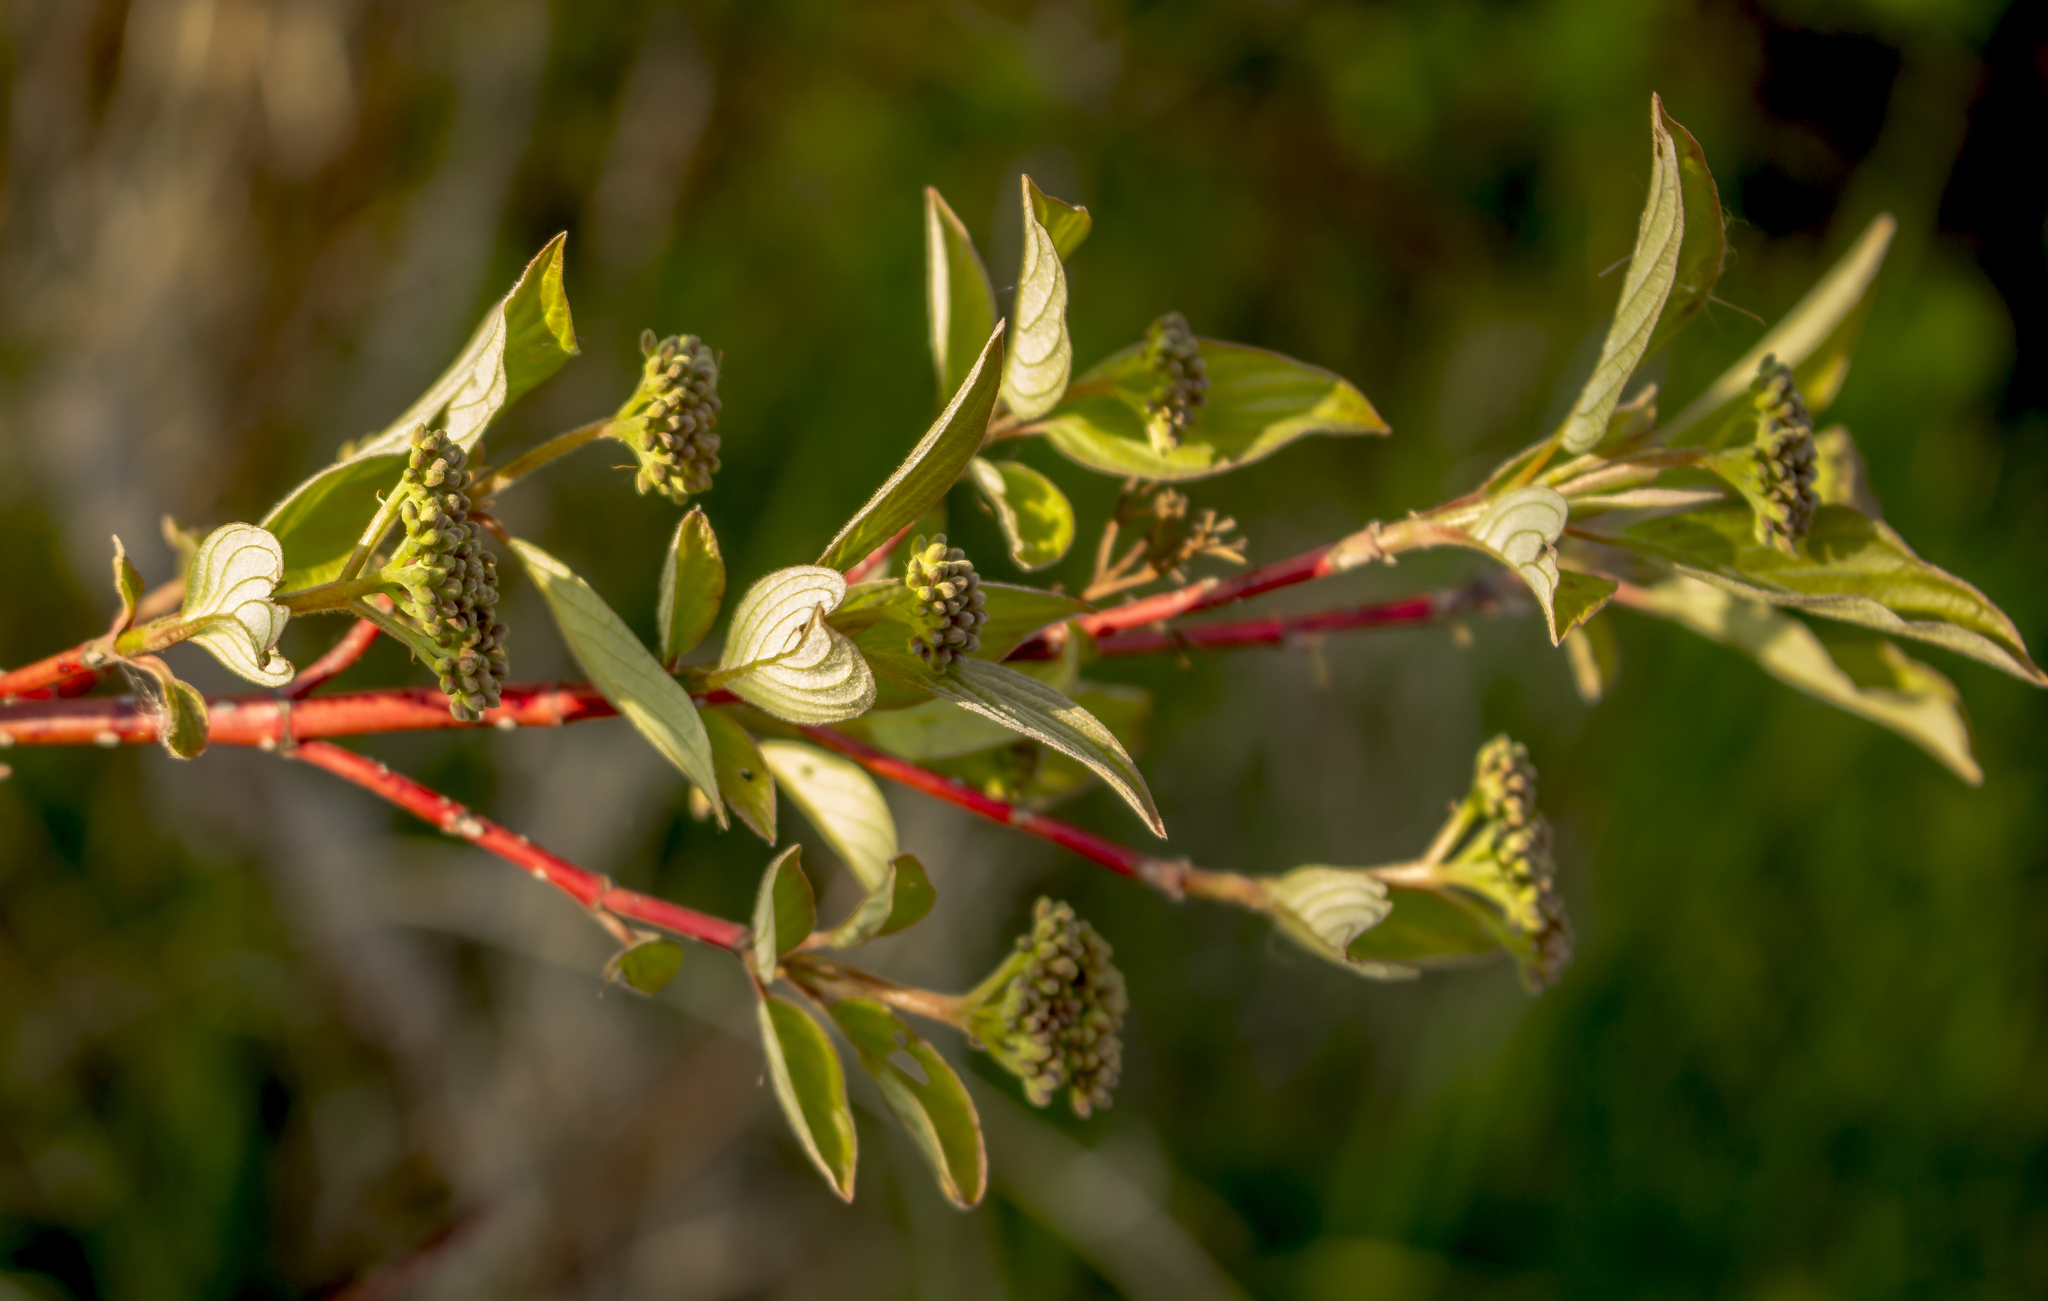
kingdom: Plantae
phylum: Tracheophyta
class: Magnoliopsida
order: Cornales
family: Cornaceae
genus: Cornus
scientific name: Cornus sericea
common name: Red-osier dogwood
